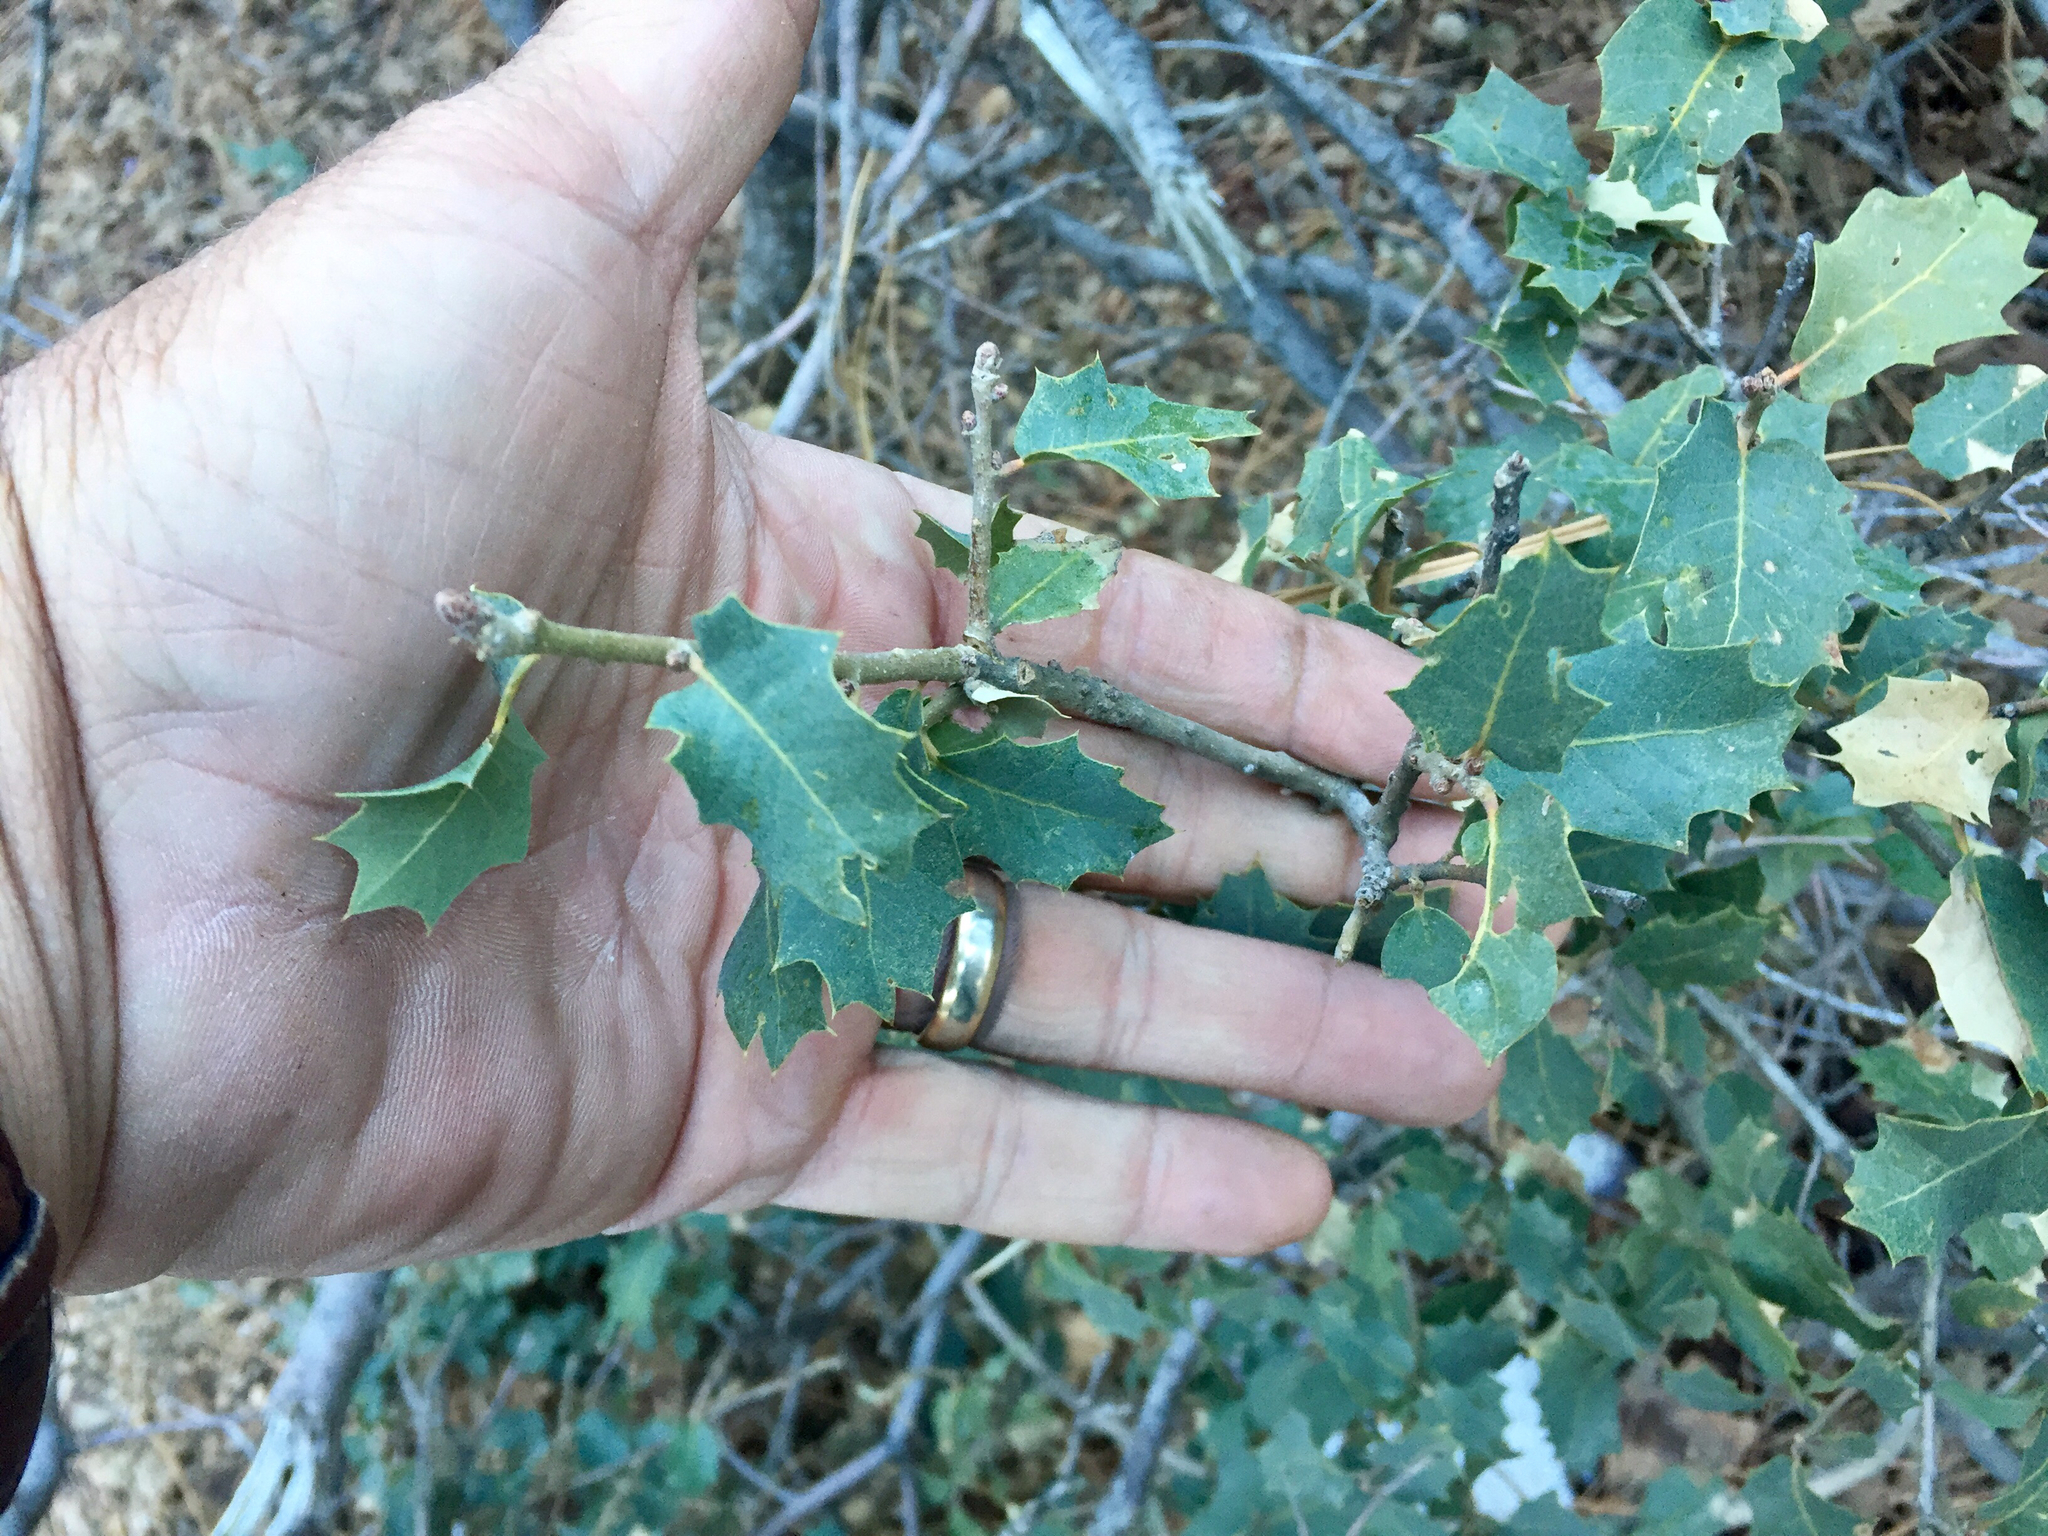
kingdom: Plantae
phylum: Tracheophyta
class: Magnoliopsida
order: Fagales
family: Fagaceae
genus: Quercus
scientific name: Quercus turbinella
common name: Sonoran scrub oak
